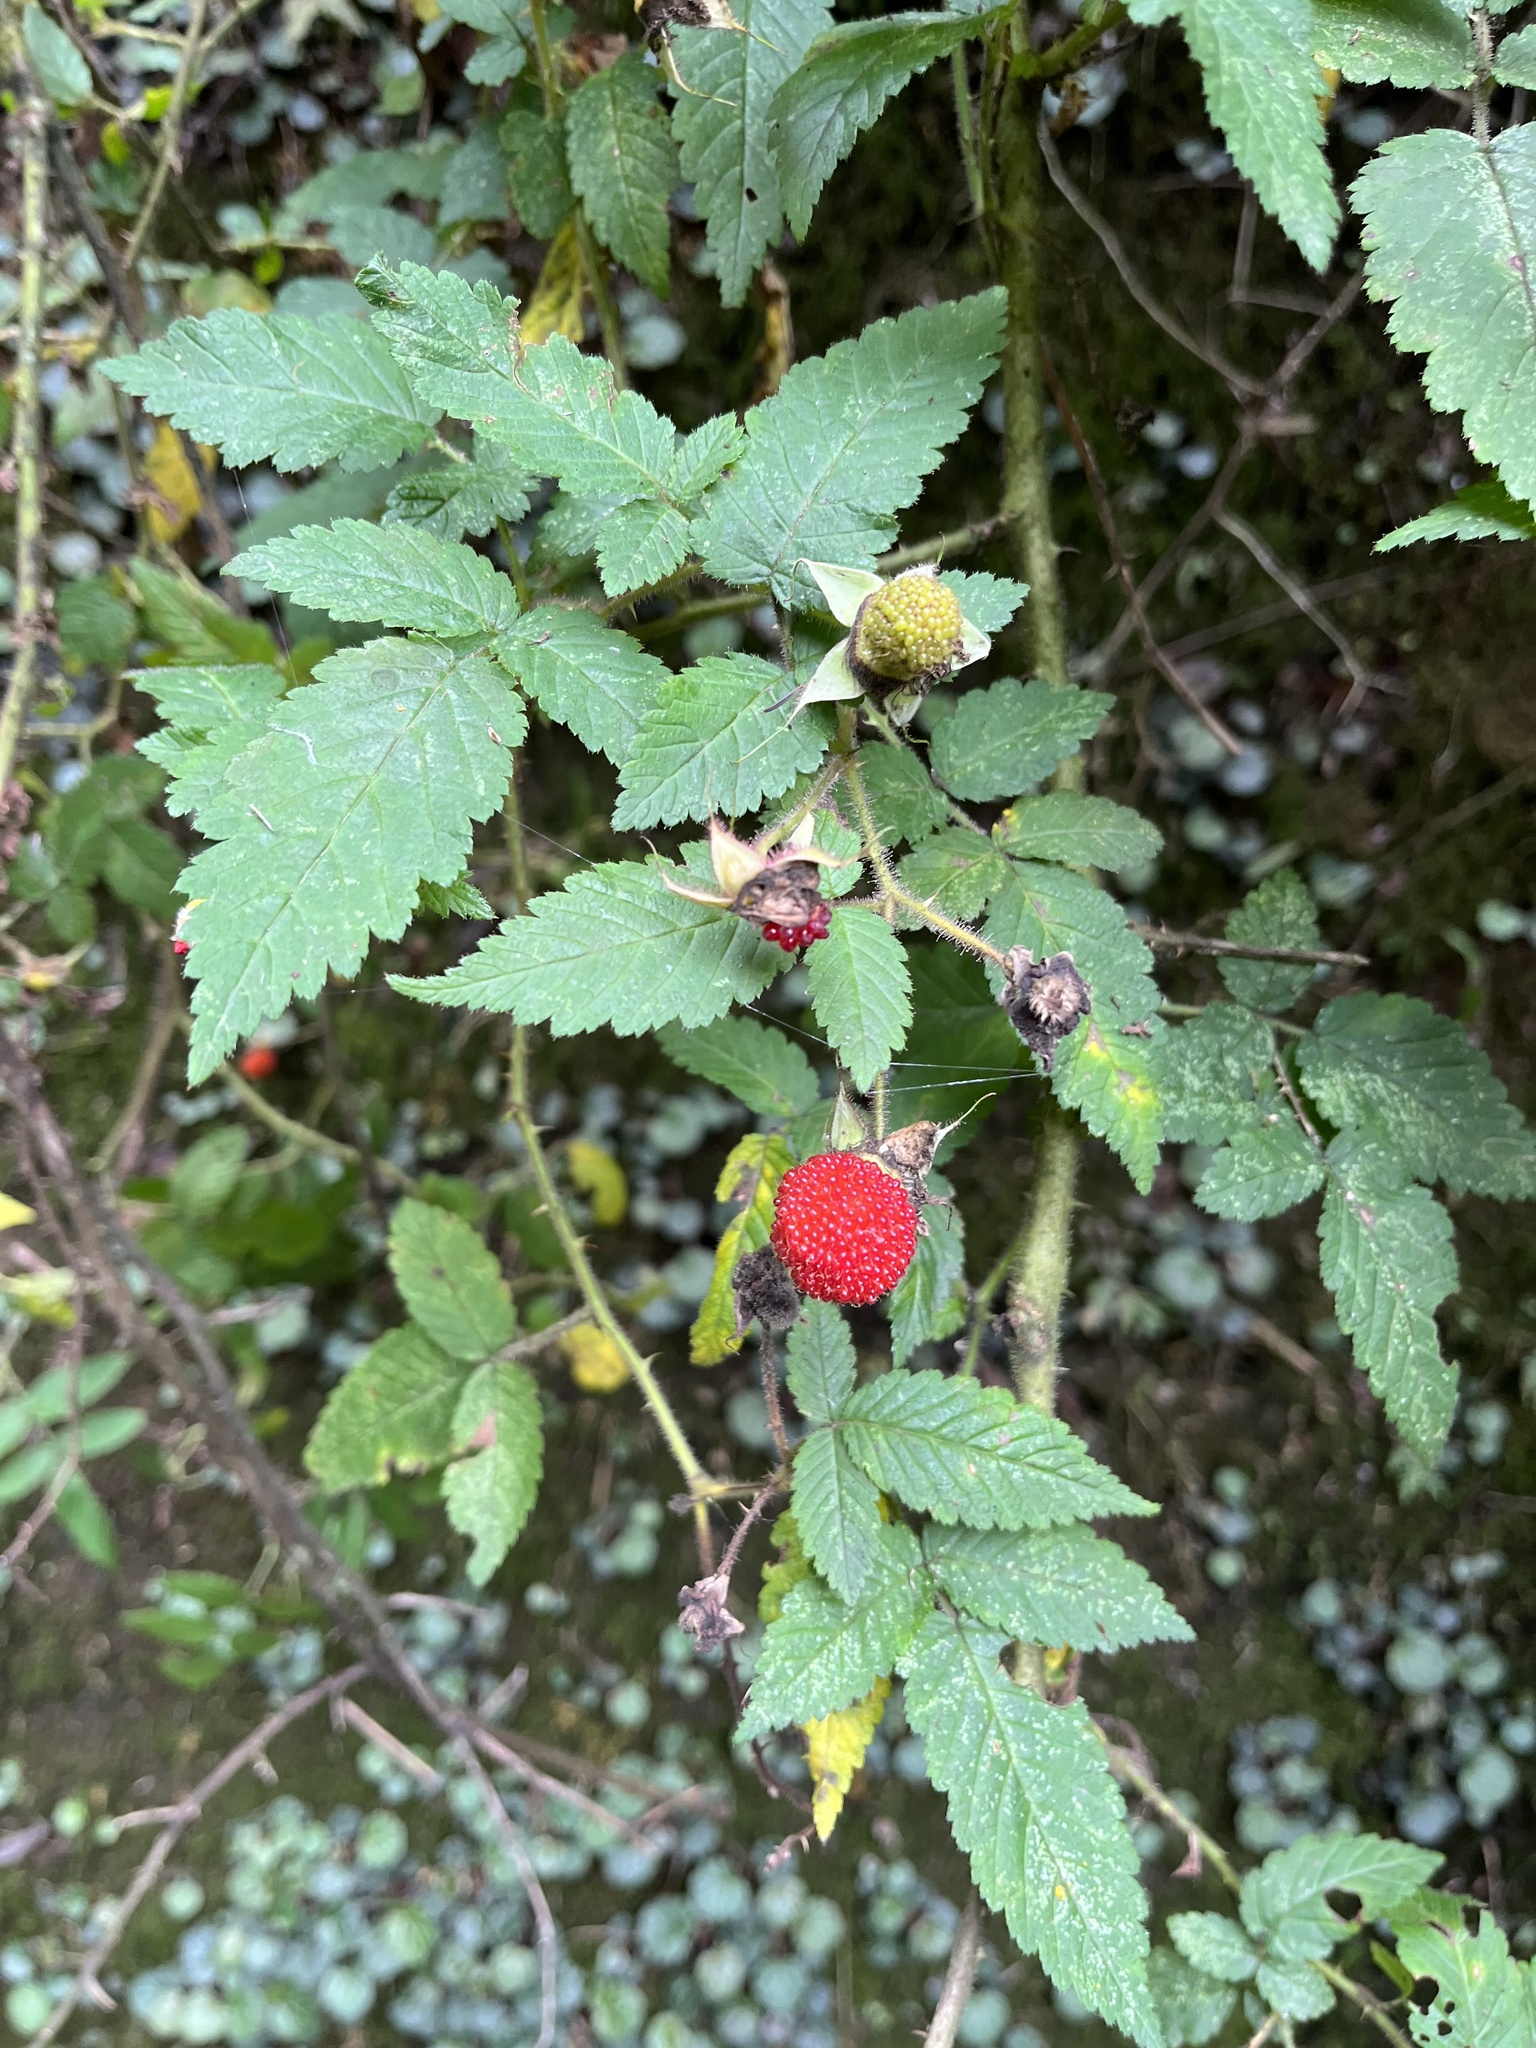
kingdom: Plantae
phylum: Tracheophyta
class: Magnoliopsida
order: Rosales
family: Rosaceae
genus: Rubus
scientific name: Rubus croceacanthus
